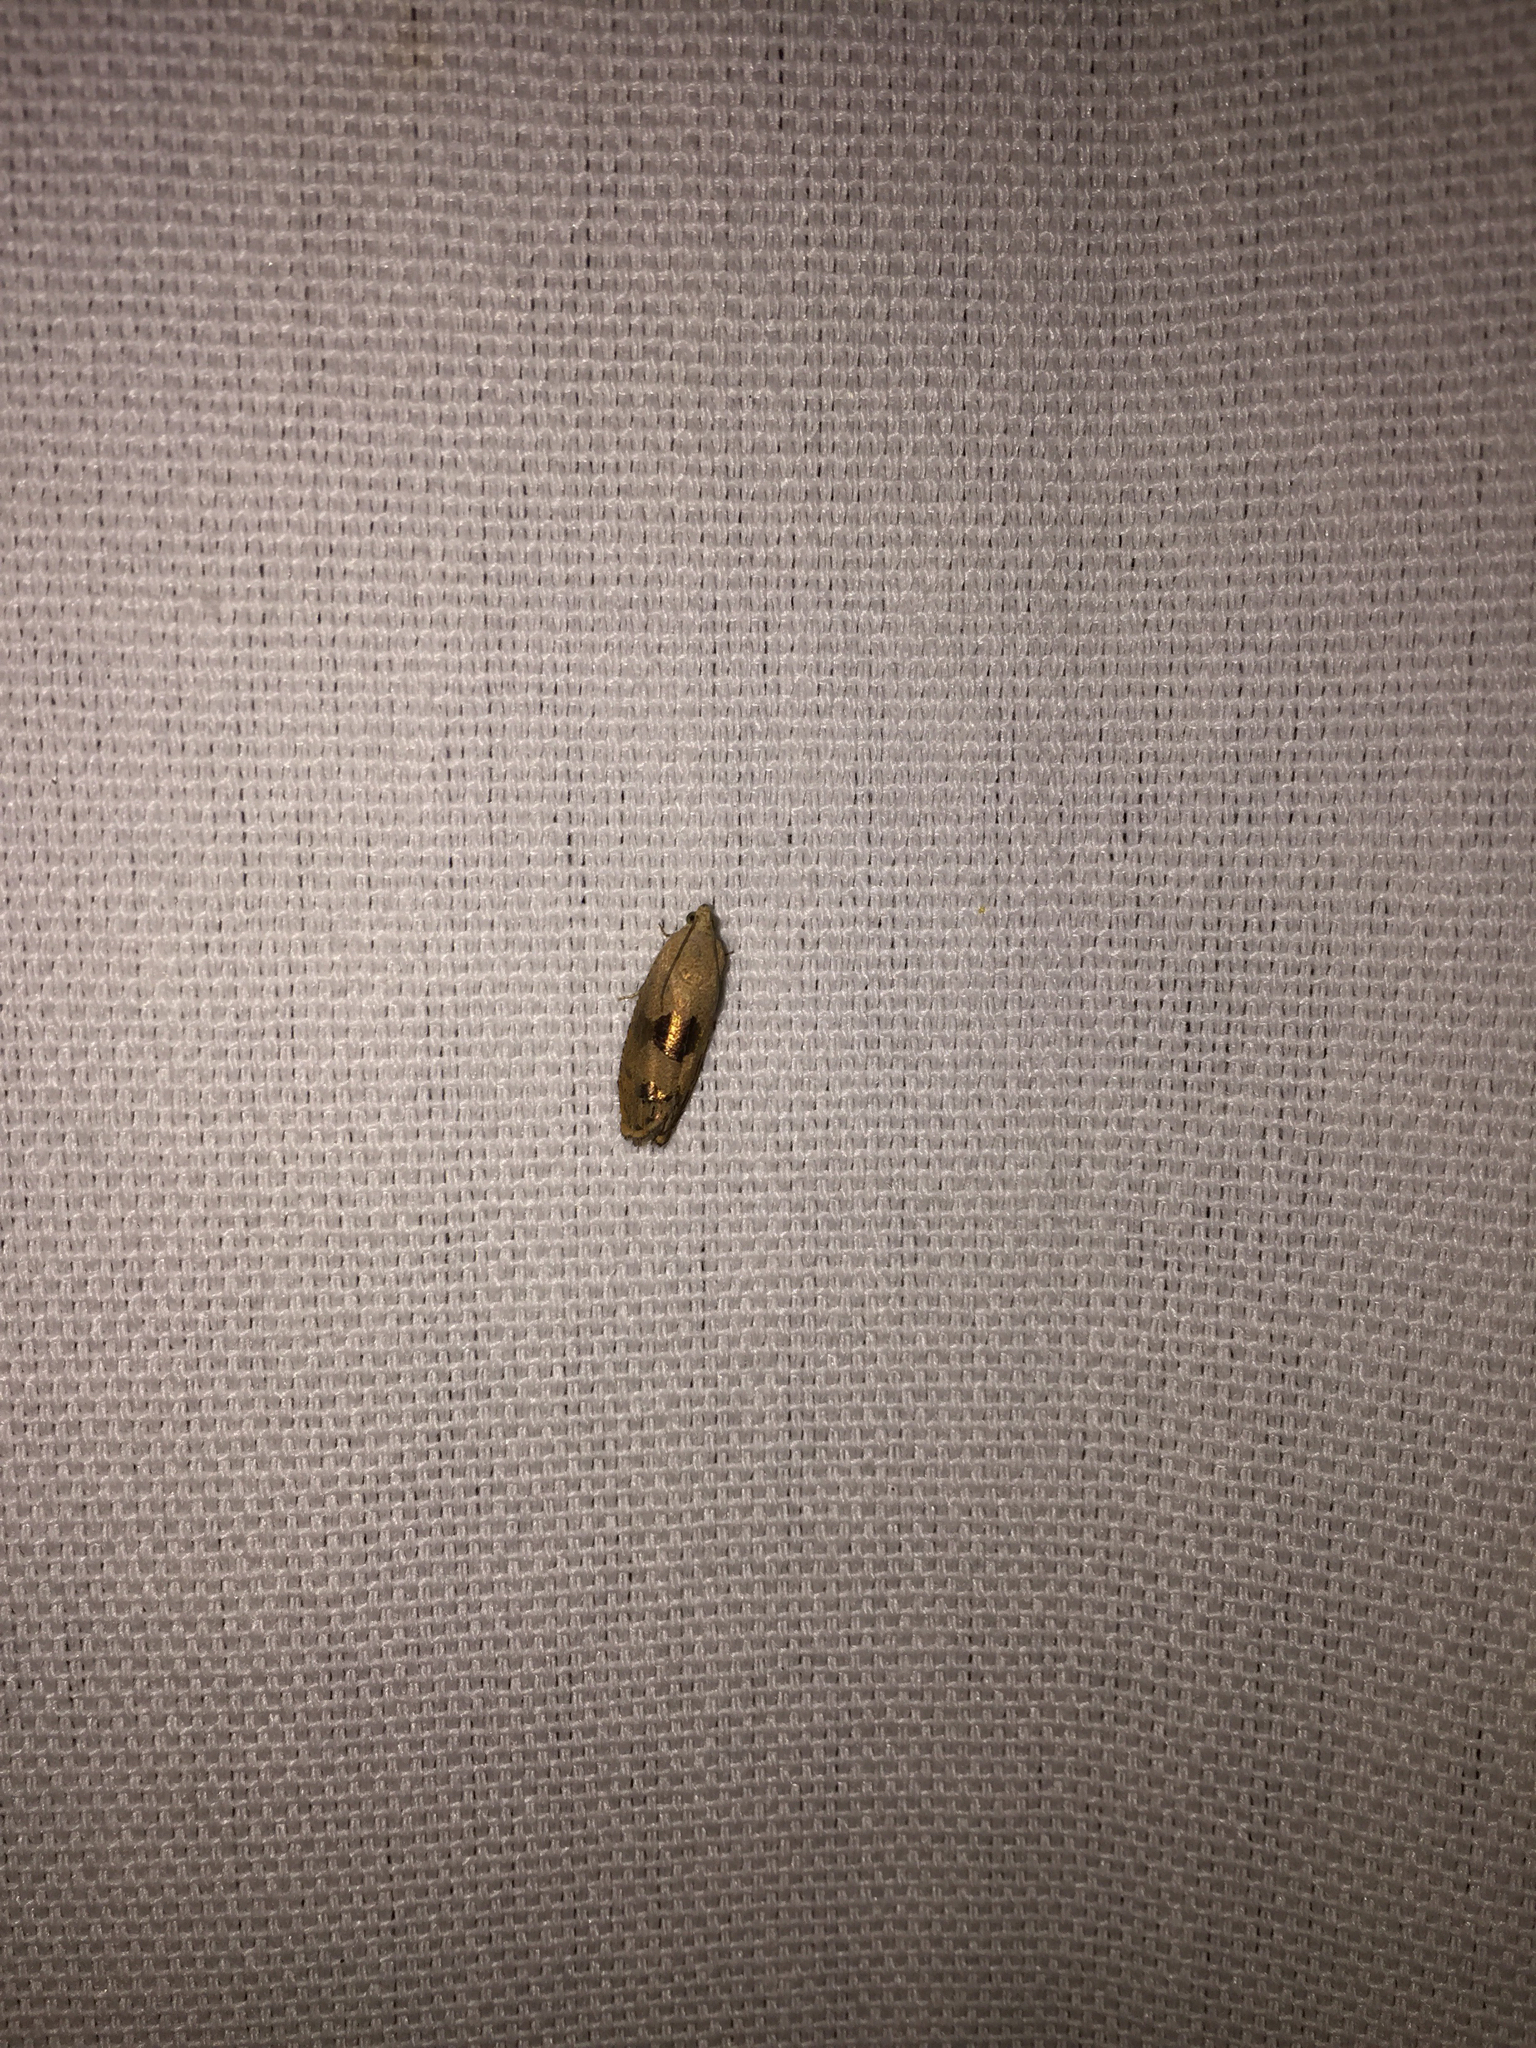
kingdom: Animalia
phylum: Arthropoda
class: Insecta
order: Lepidoptera
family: Tortricidae
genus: Cydia
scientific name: Cydia latiferreana
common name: Filbertworm moth
